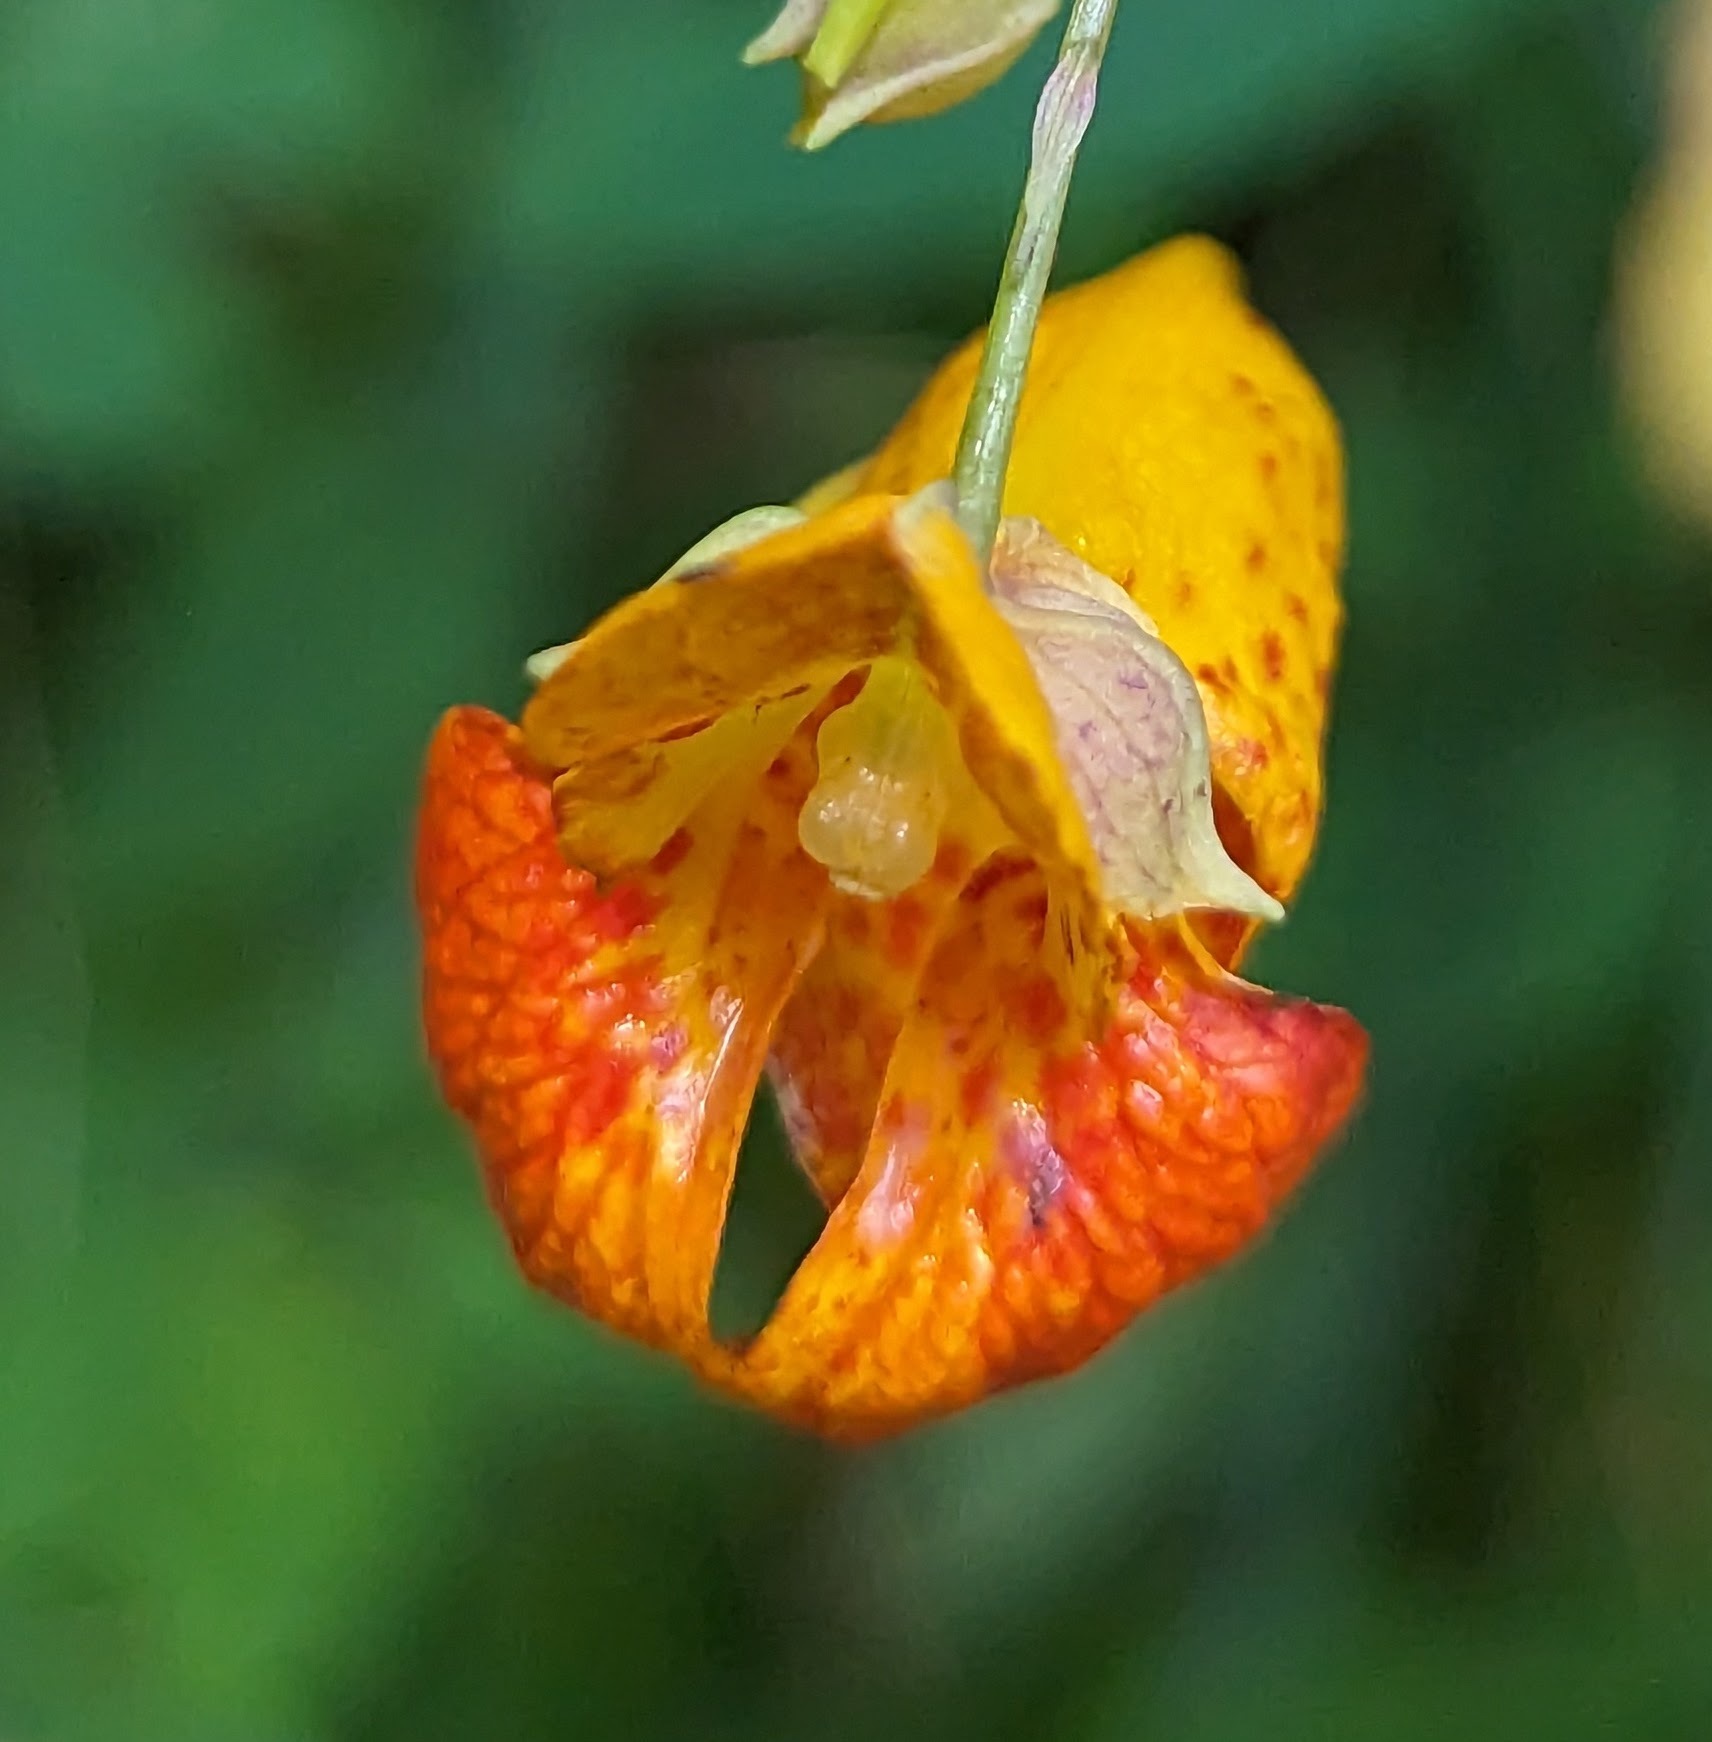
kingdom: Plantae
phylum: Tracheophyta
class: Magnoliopsida
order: Ericales
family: Balsaminaceae
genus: Impatiens
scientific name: Impatiens capensis
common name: Orange balsam
